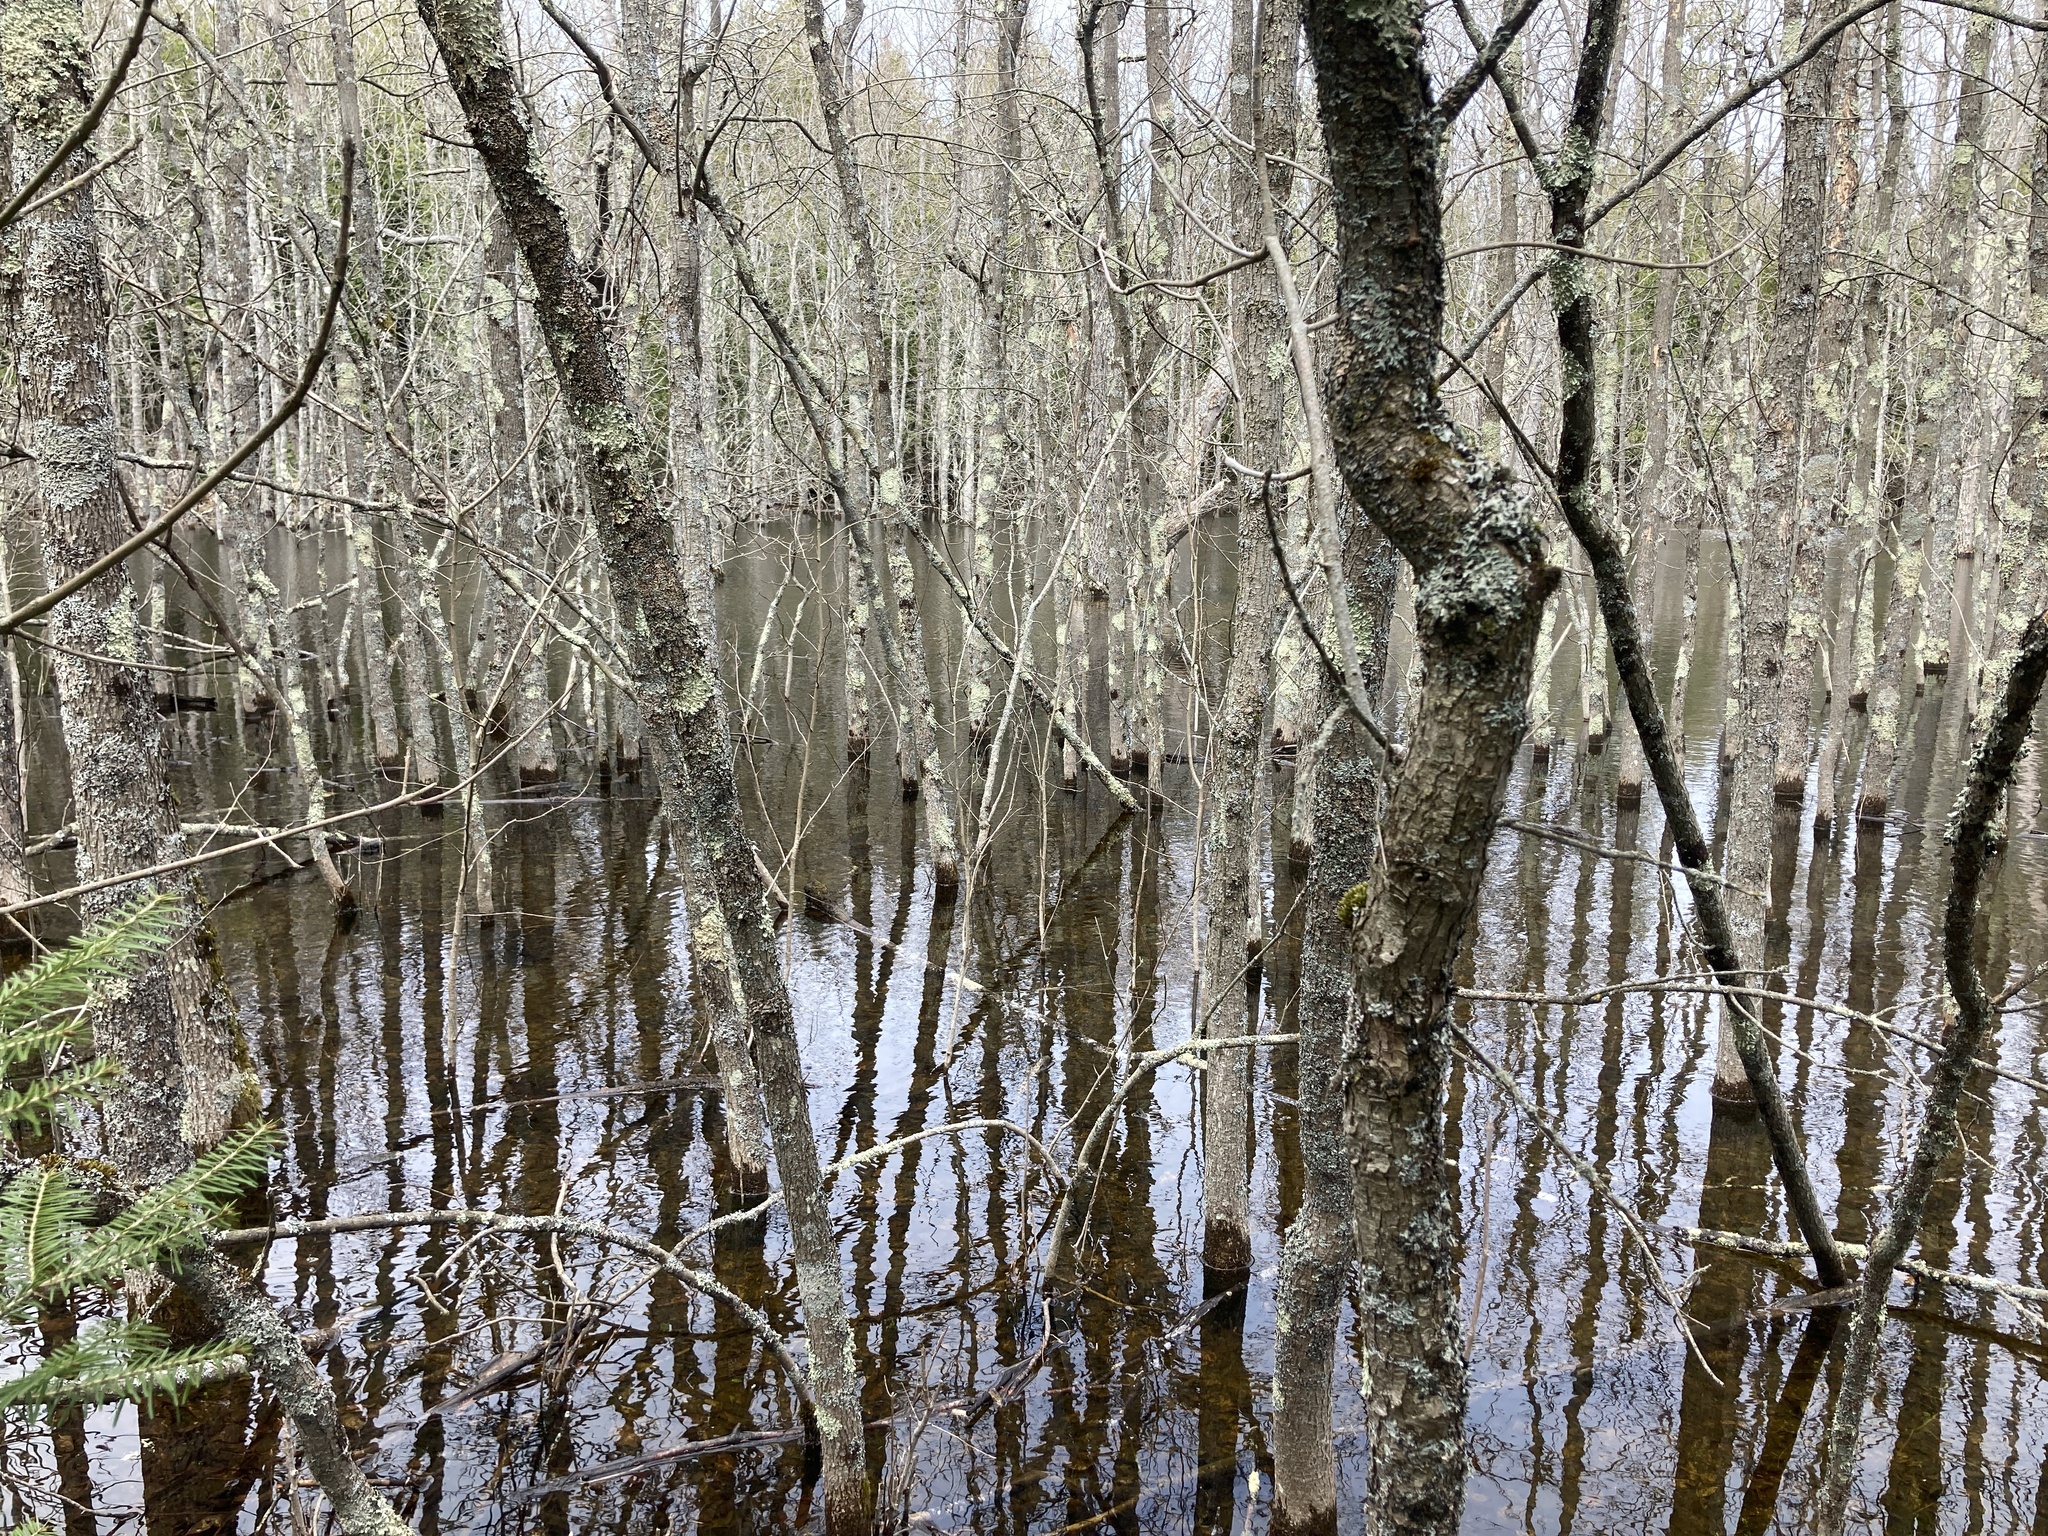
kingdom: Plantae
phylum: Tracheophyta
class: Magnoliopsida
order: Lamiales
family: Oleaceae
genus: Fraxinus
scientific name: Fraxinus nigra
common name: Black ash
